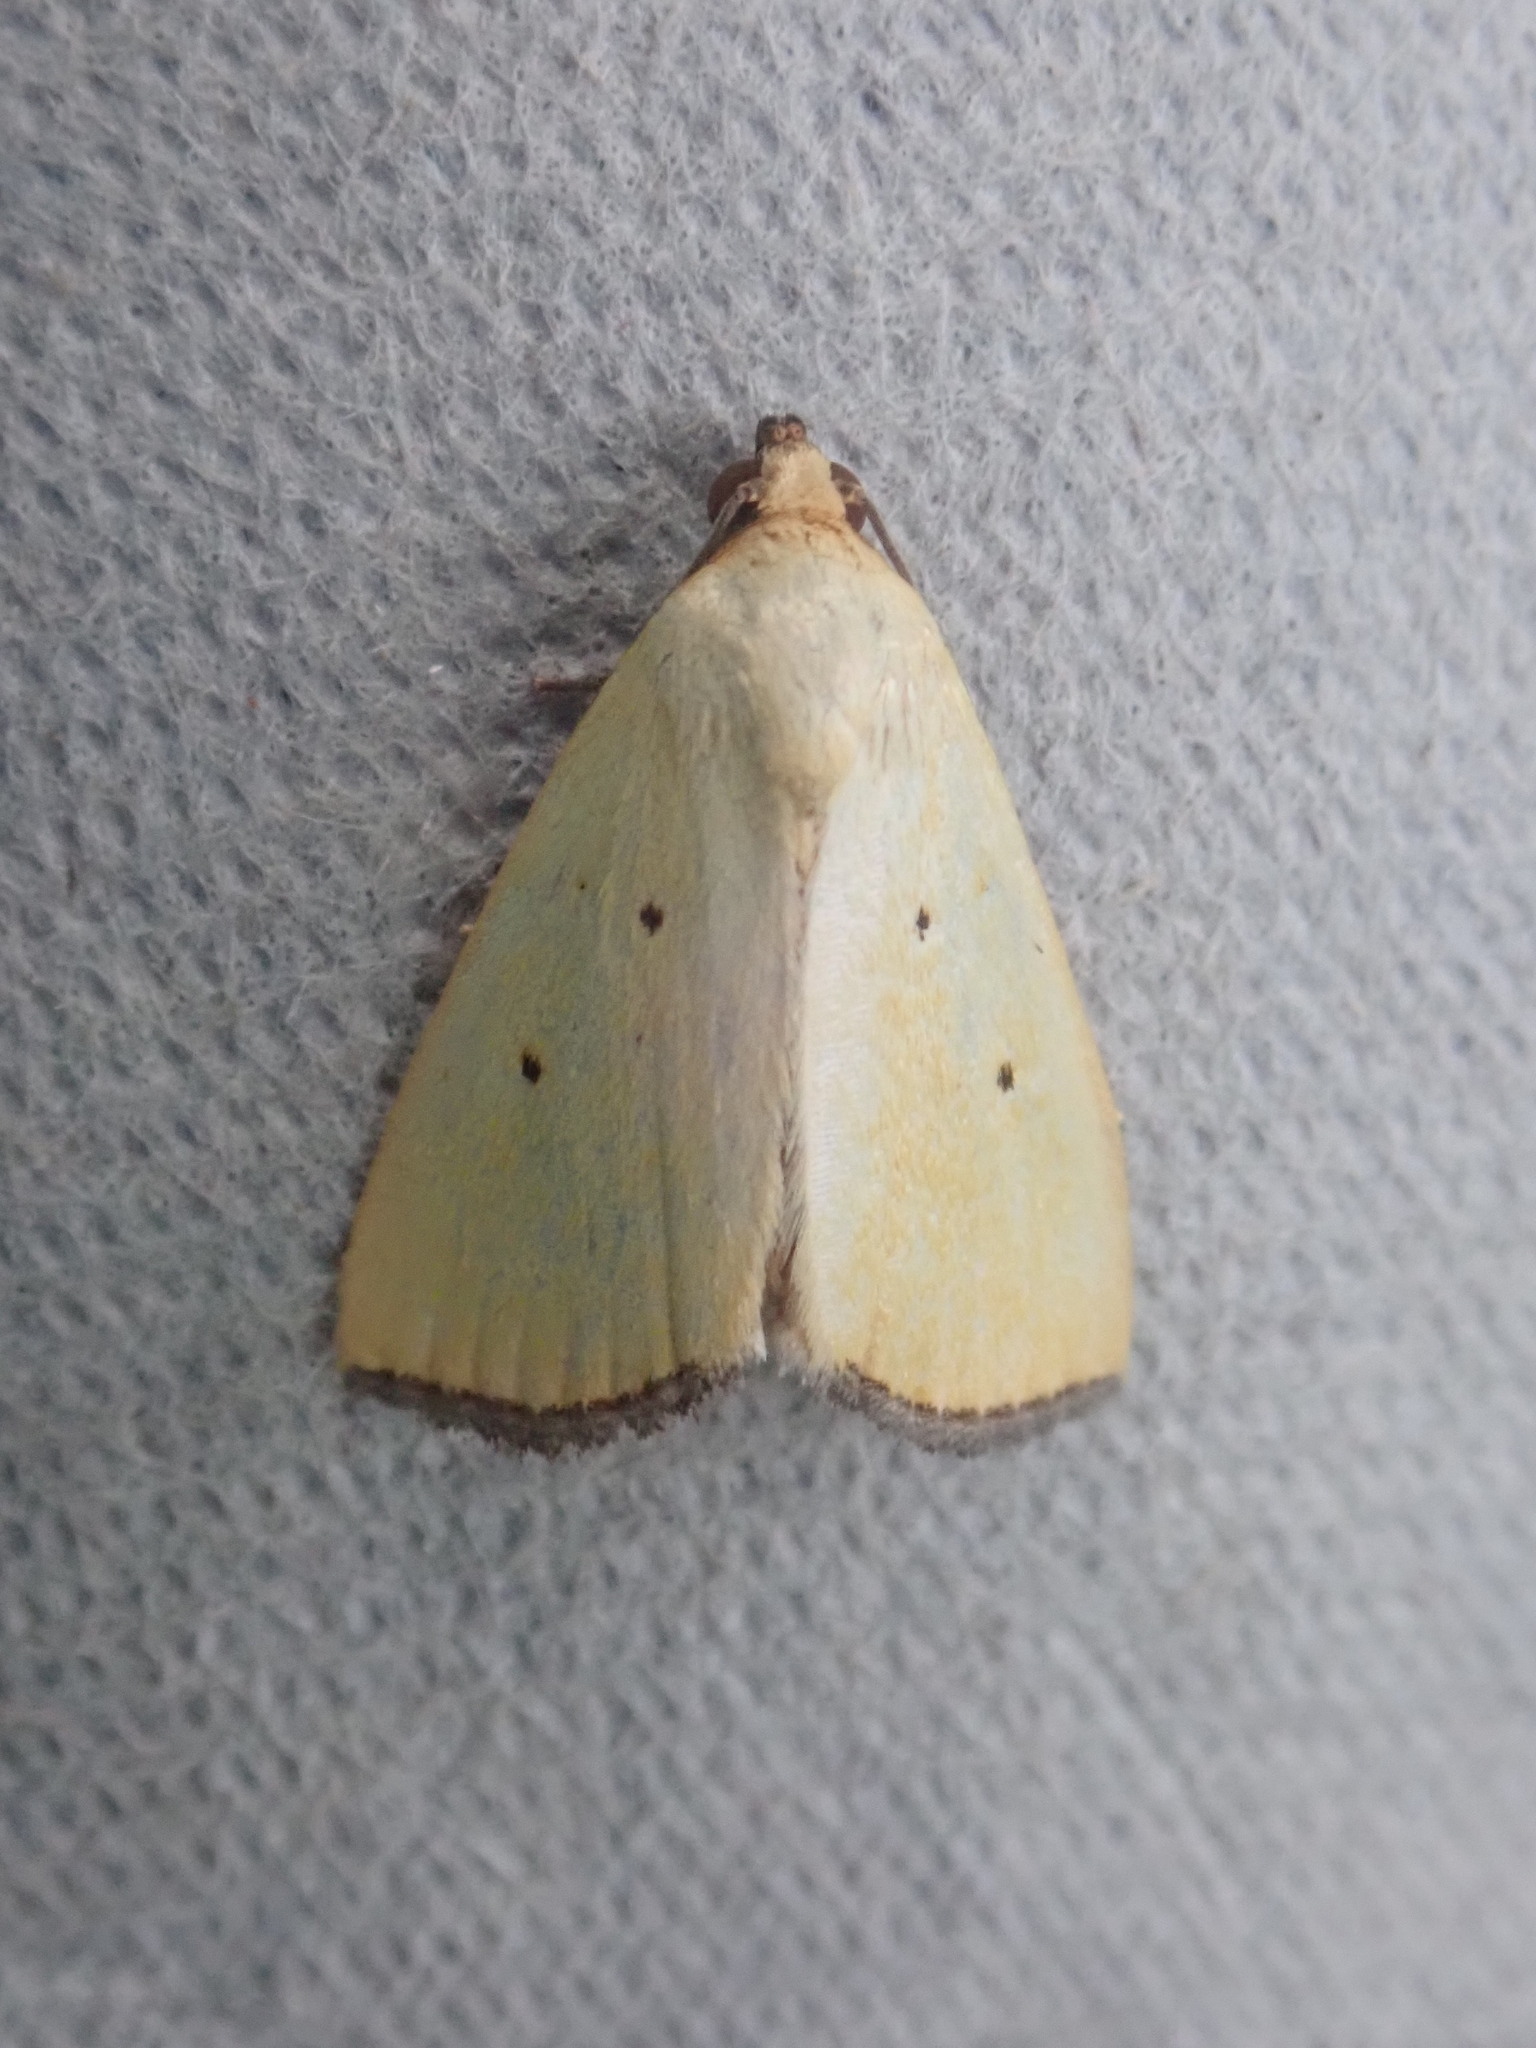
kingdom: Animalia
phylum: Arthropoda
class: Insecta
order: Lepidoptera
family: Noctuidae
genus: Marimatha
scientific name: Marimatha nigrofimbria
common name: Black-bordered lemon moth
